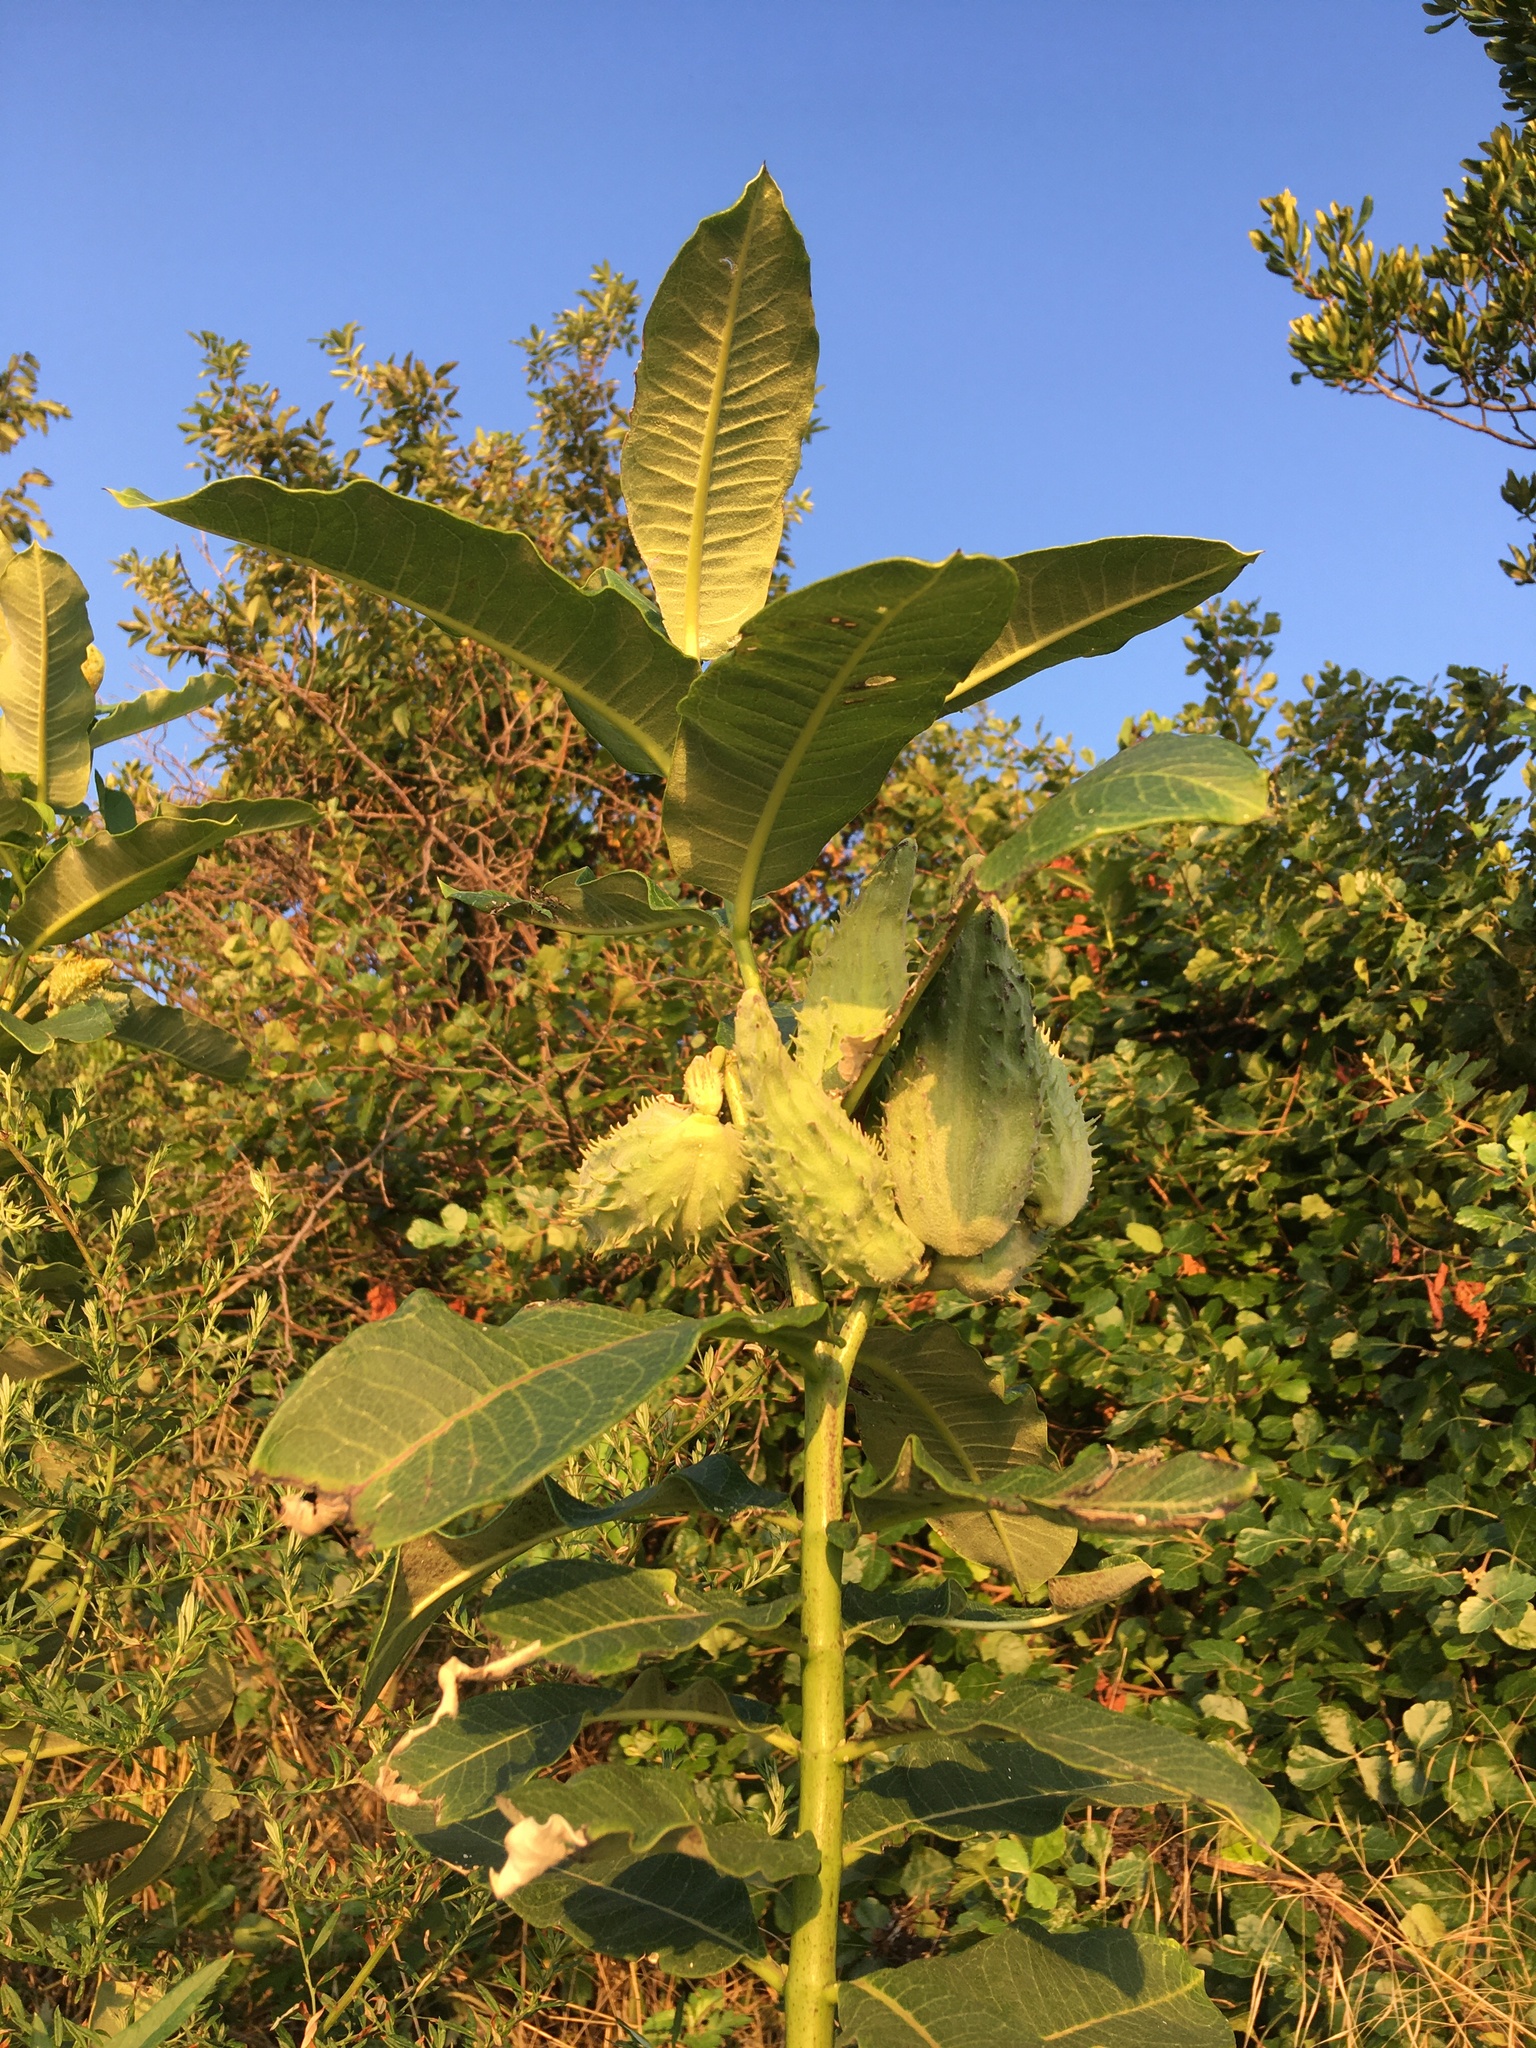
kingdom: Plantae
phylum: Tracheophyta
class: Magnoliopsida
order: Gentianales
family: Apocynaceae
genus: Asclepias
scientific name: Asclepias syriaca
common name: Common milkweed
